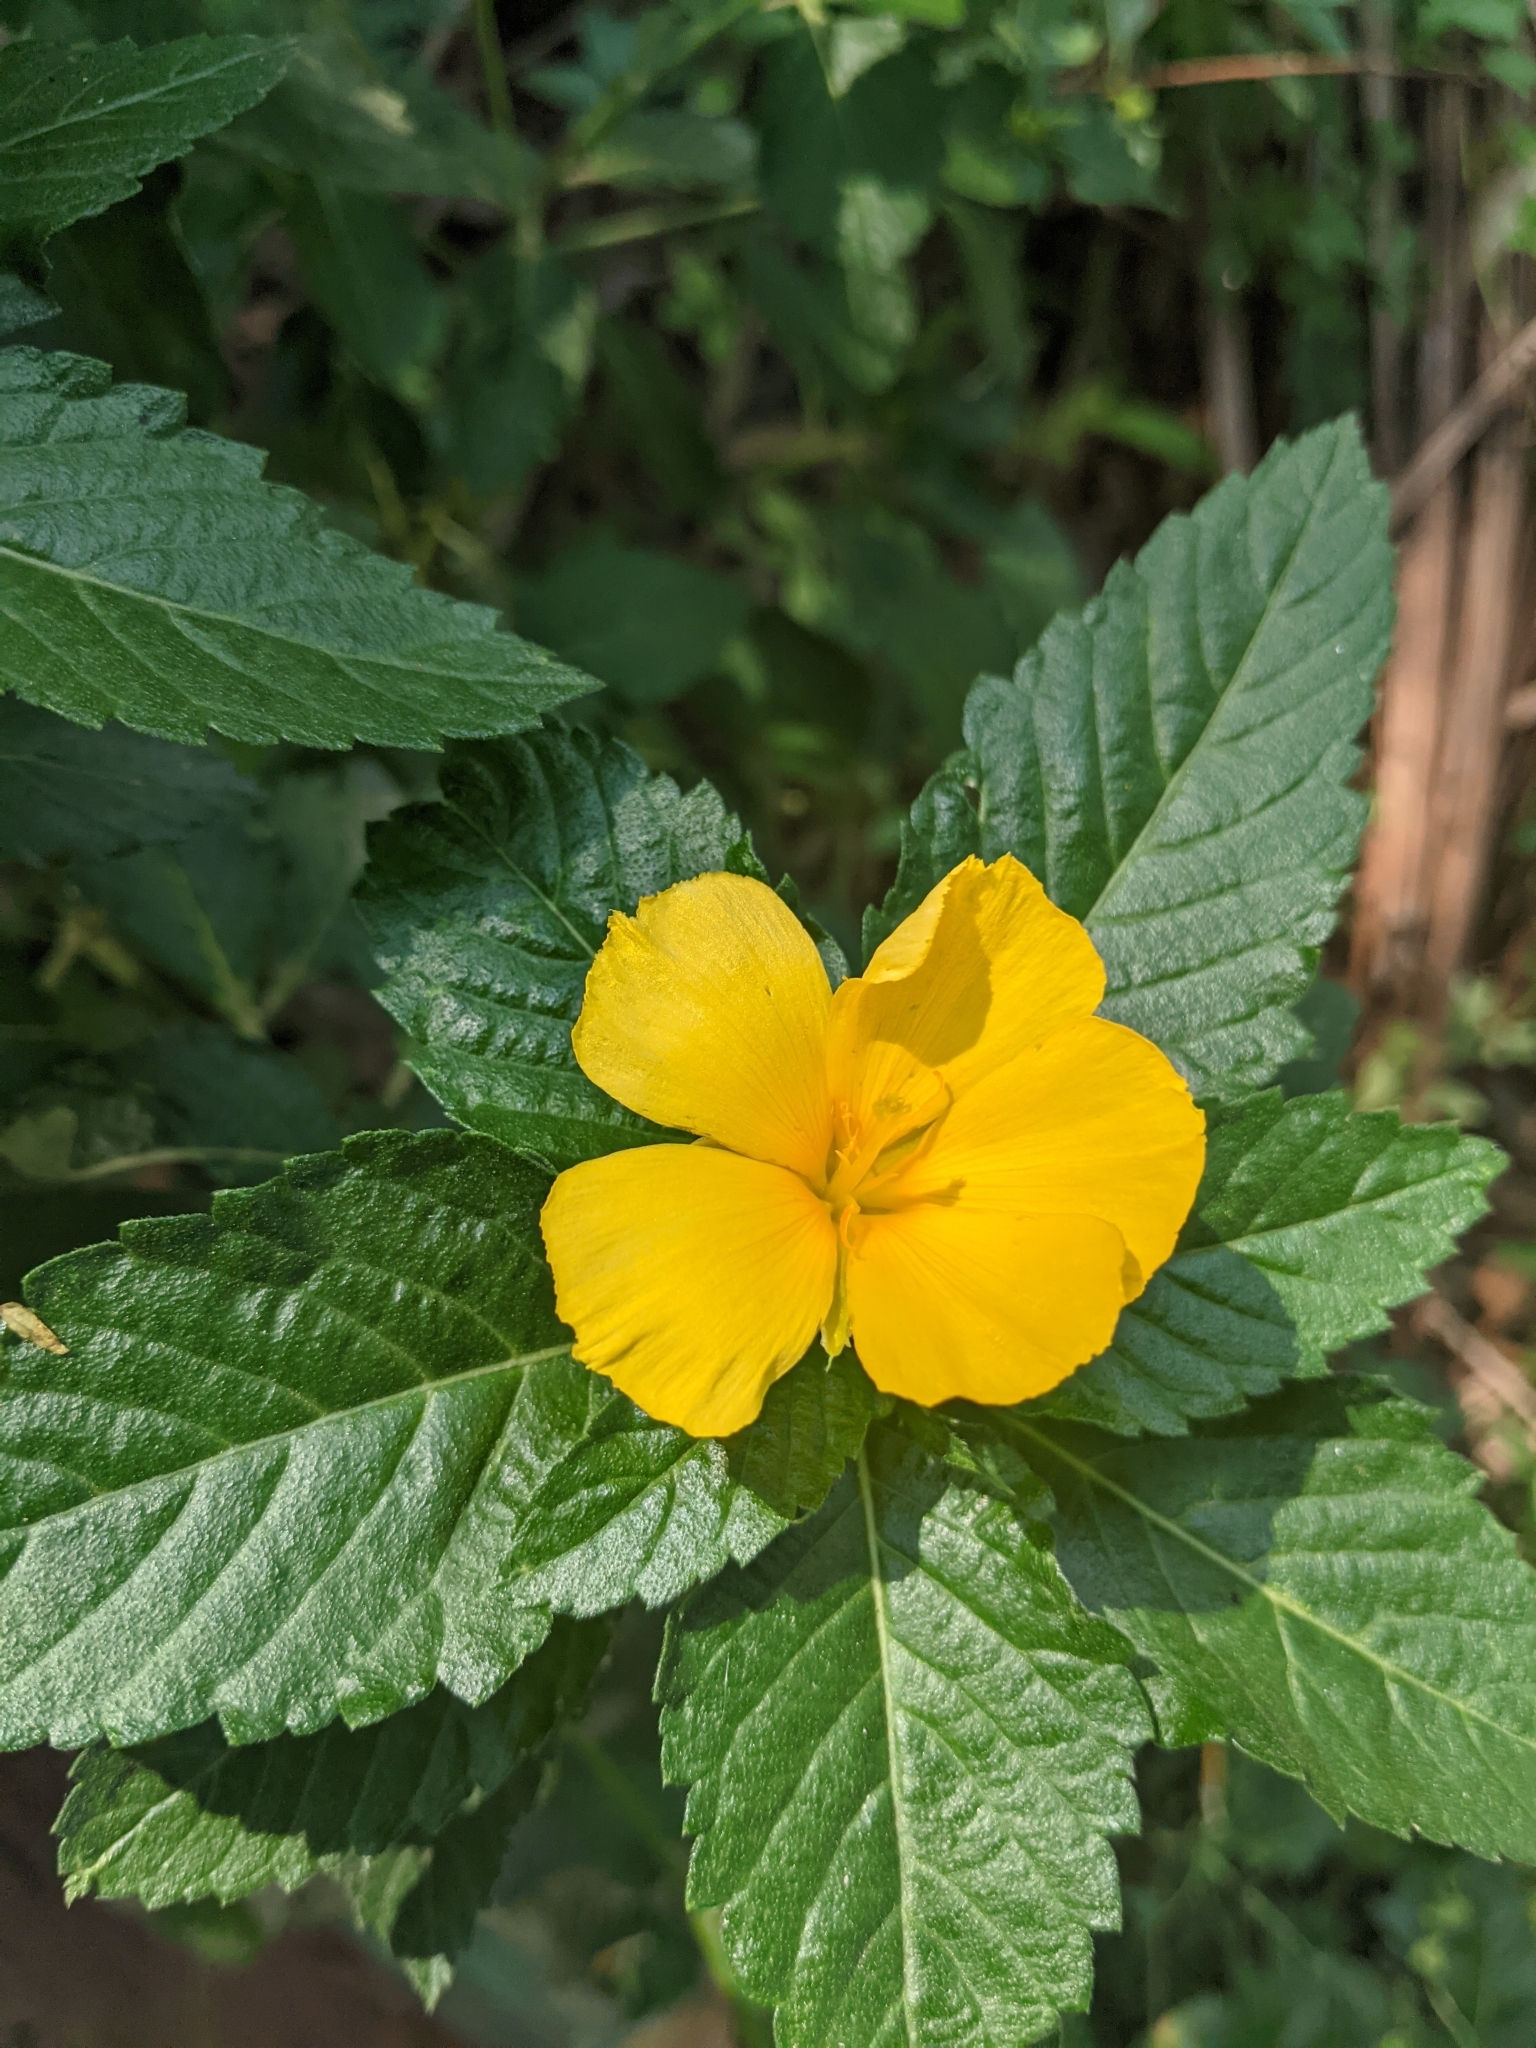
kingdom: Plantae
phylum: Tracheophyta
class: Magnoliopsida
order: Malpighiales
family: Turneraceae
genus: Turnera
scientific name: Turnera ulmifolia
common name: Ramgoat dashalong
